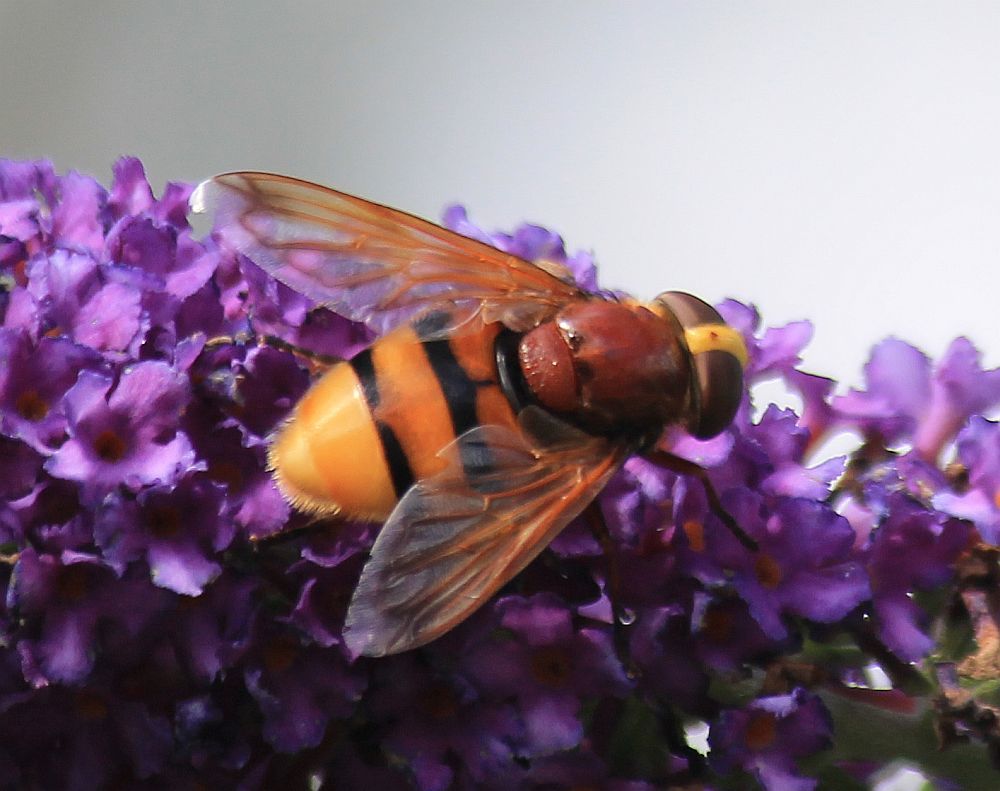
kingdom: Animalia
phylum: Arthropoda
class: Insecta
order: Diptera
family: Syrphidae
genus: Volucella
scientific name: Volucella zonaria
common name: Hornet hoverfly
